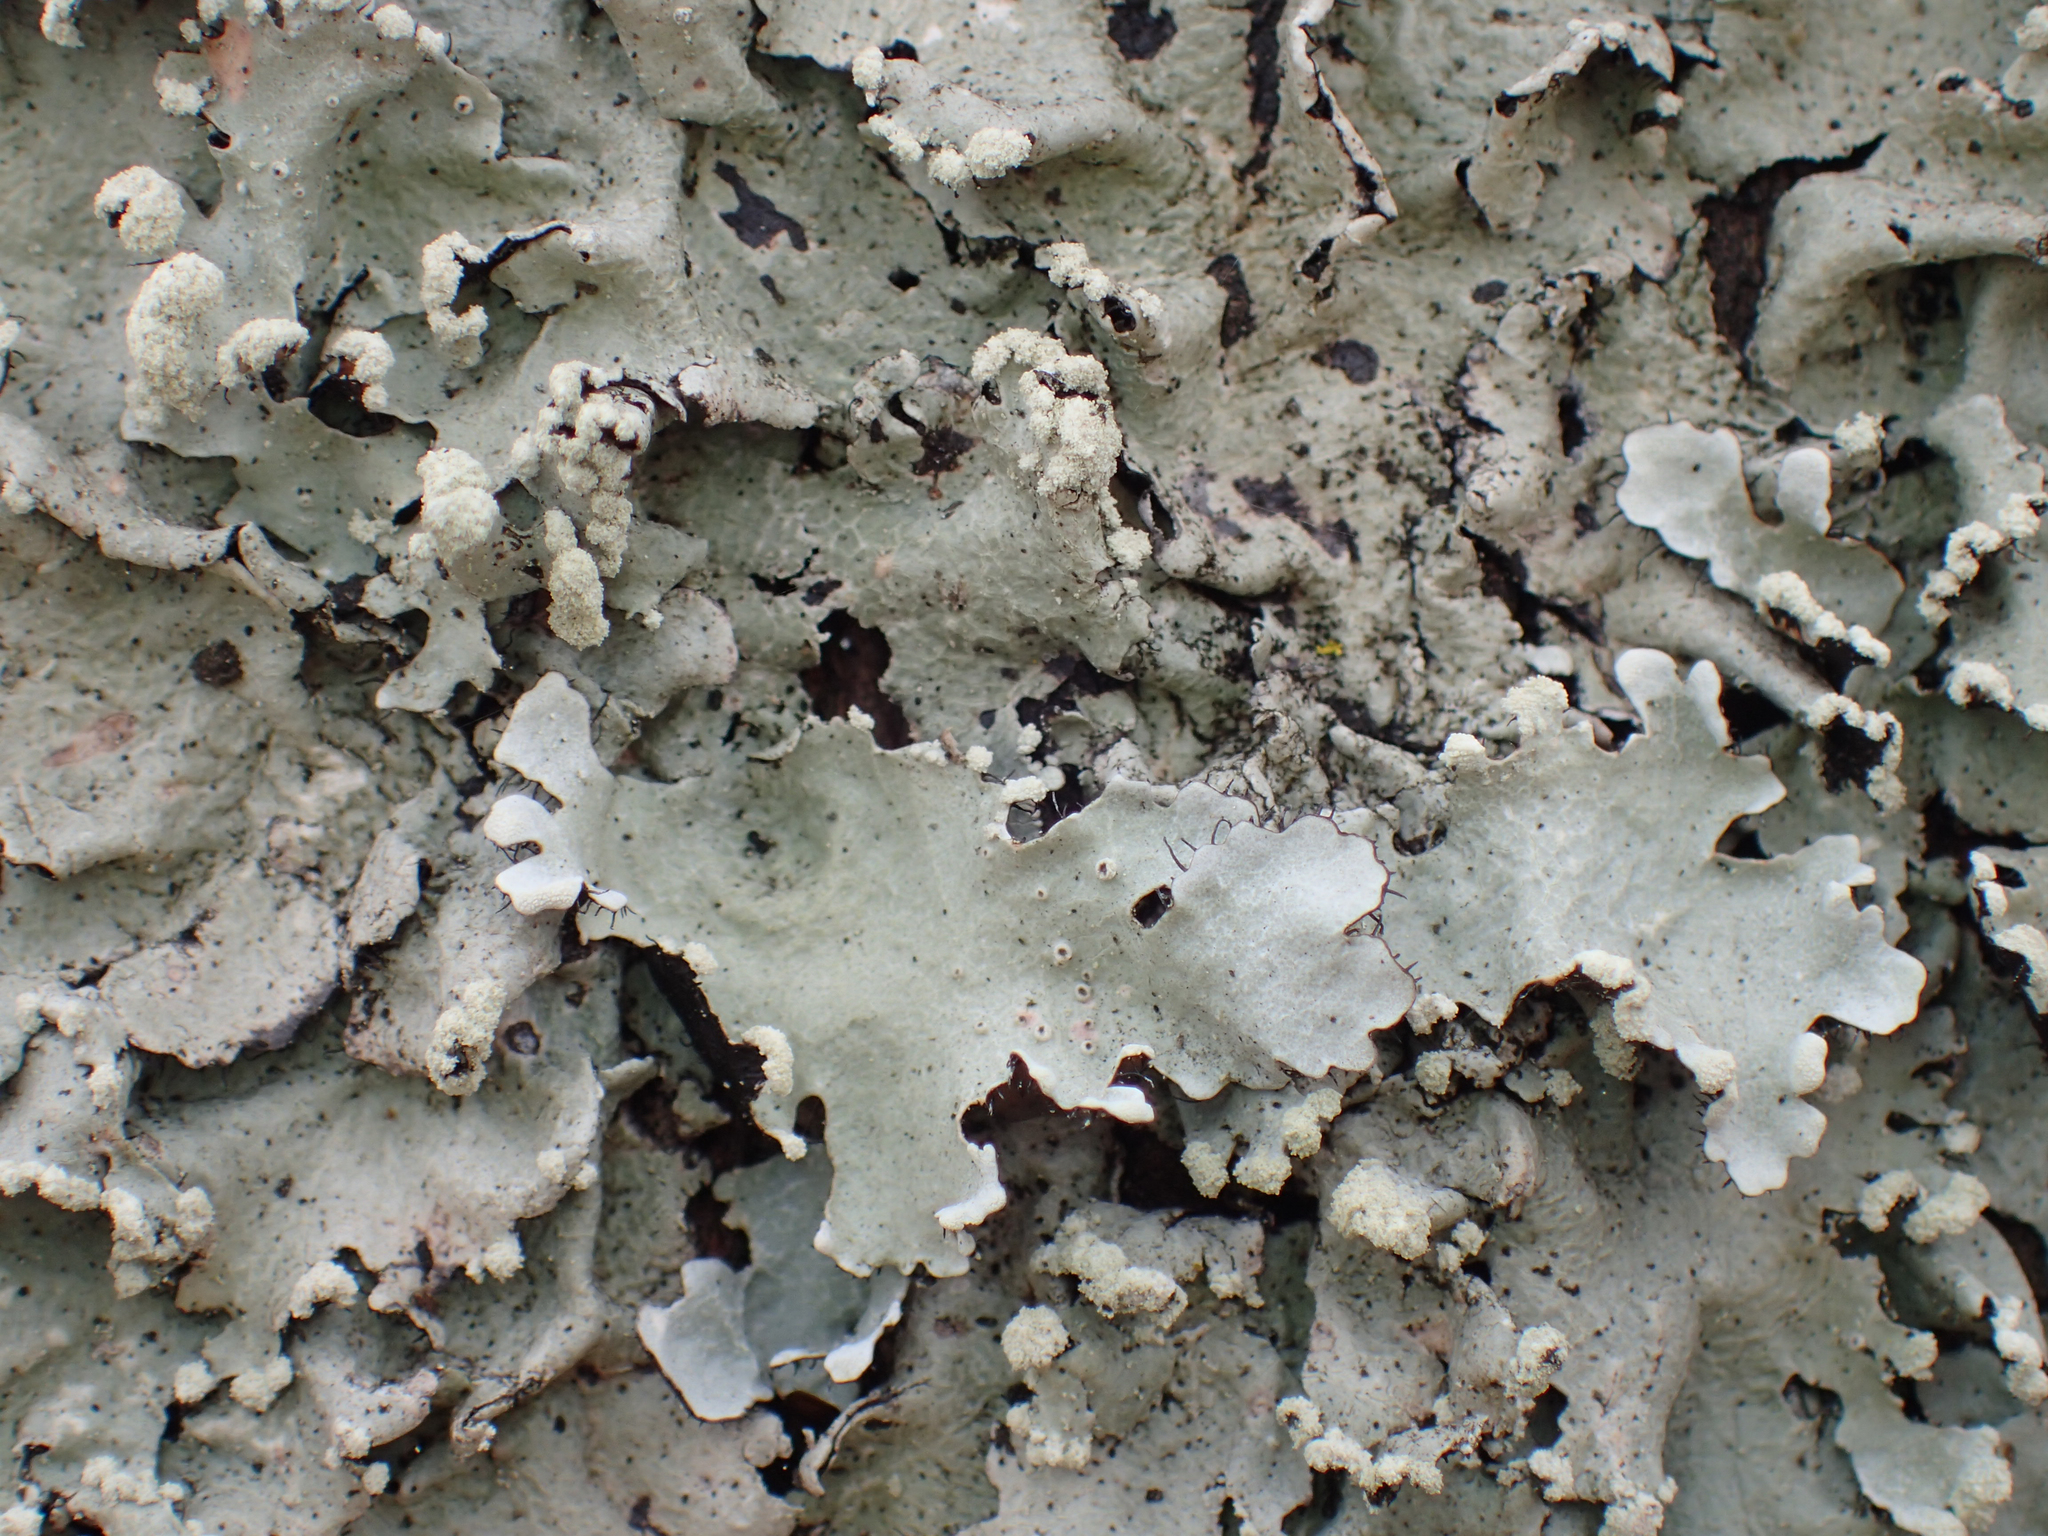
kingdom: Fungi
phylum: Ascomycota
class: Lecanoromycetes
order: Lecanorales
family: Parmeliaceae
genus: Parmotrema
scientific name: Parmotrema reticulatum
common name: Black sheet lichen
